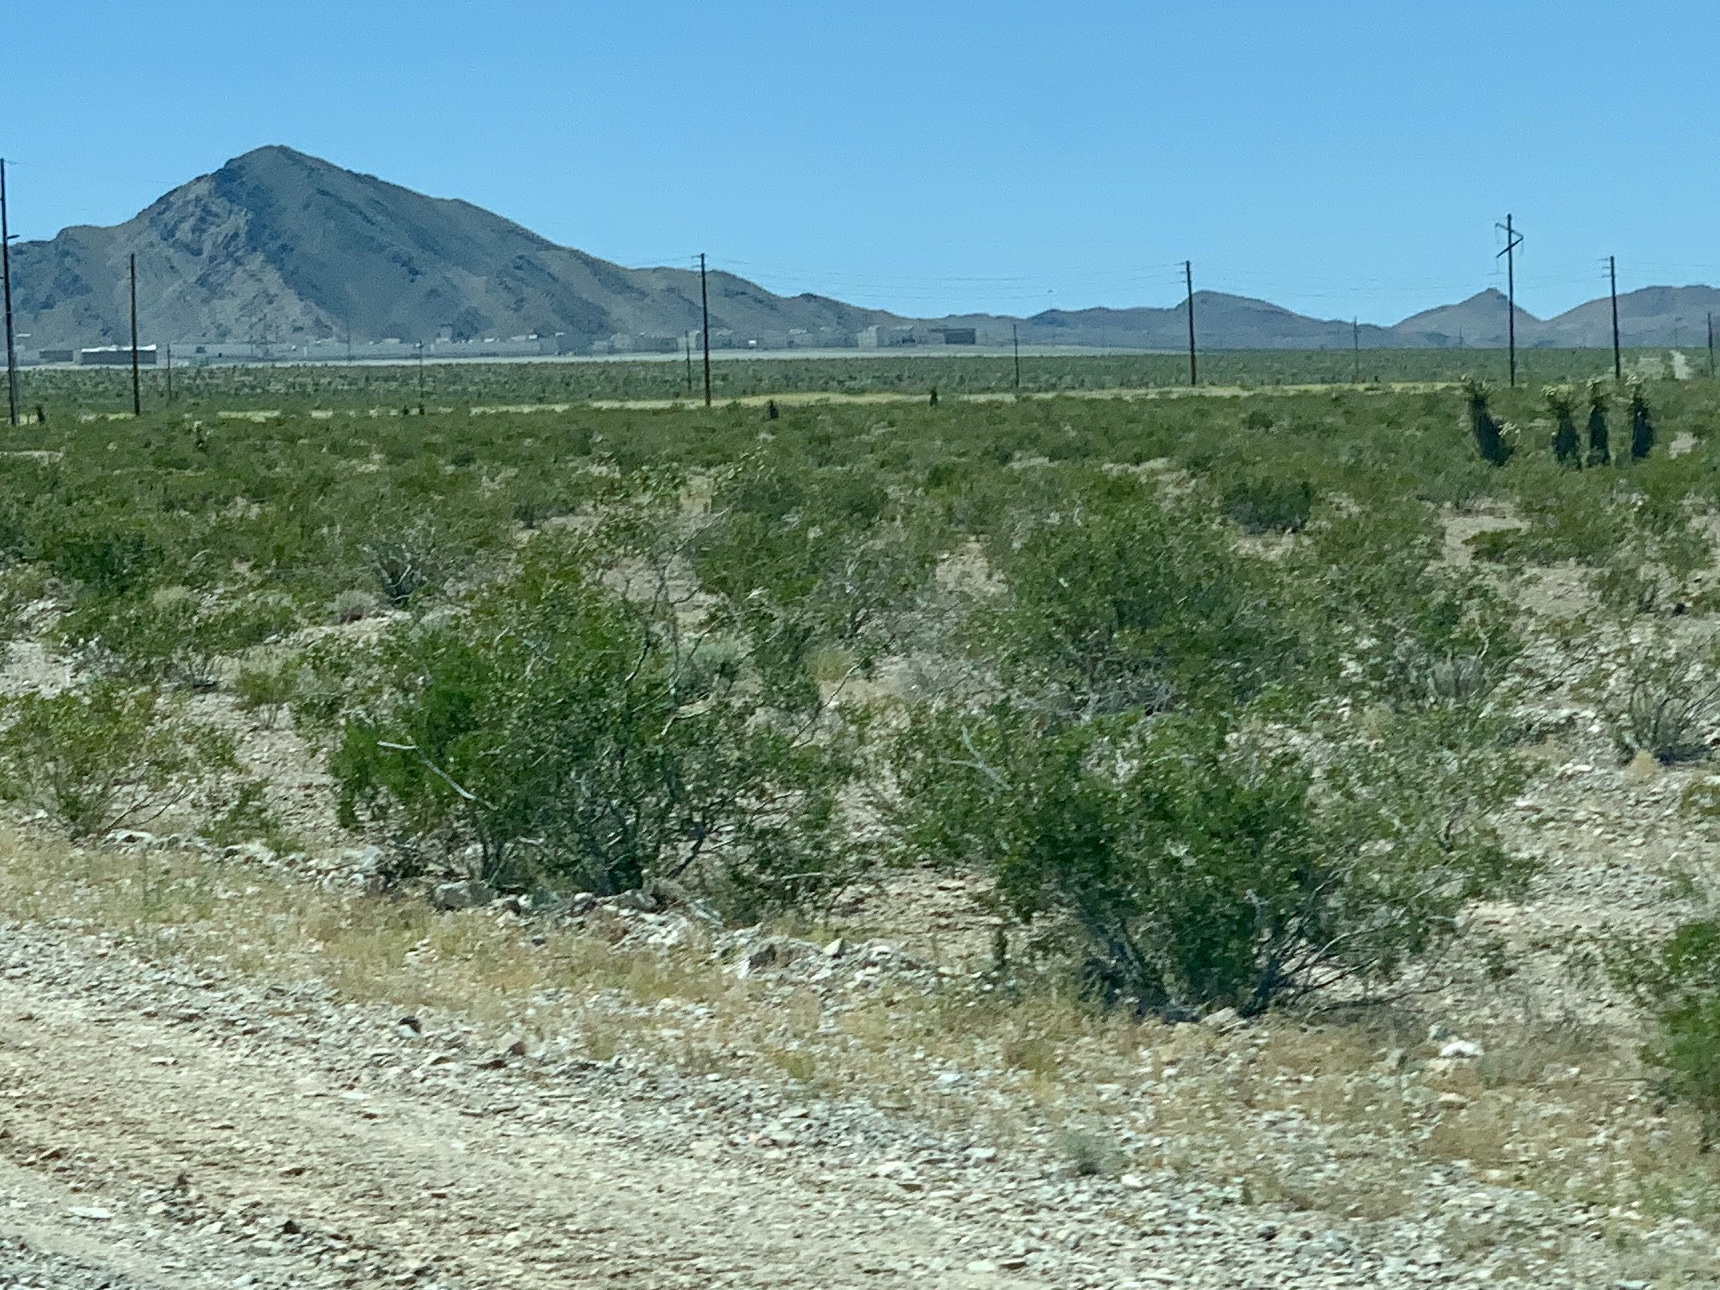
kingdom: Plantae
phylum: Tracheophyta
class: Magnoliopsida
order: Zygophyllales
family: Zygophyllaceae
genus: Larrea
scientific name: Larrea tridentata
